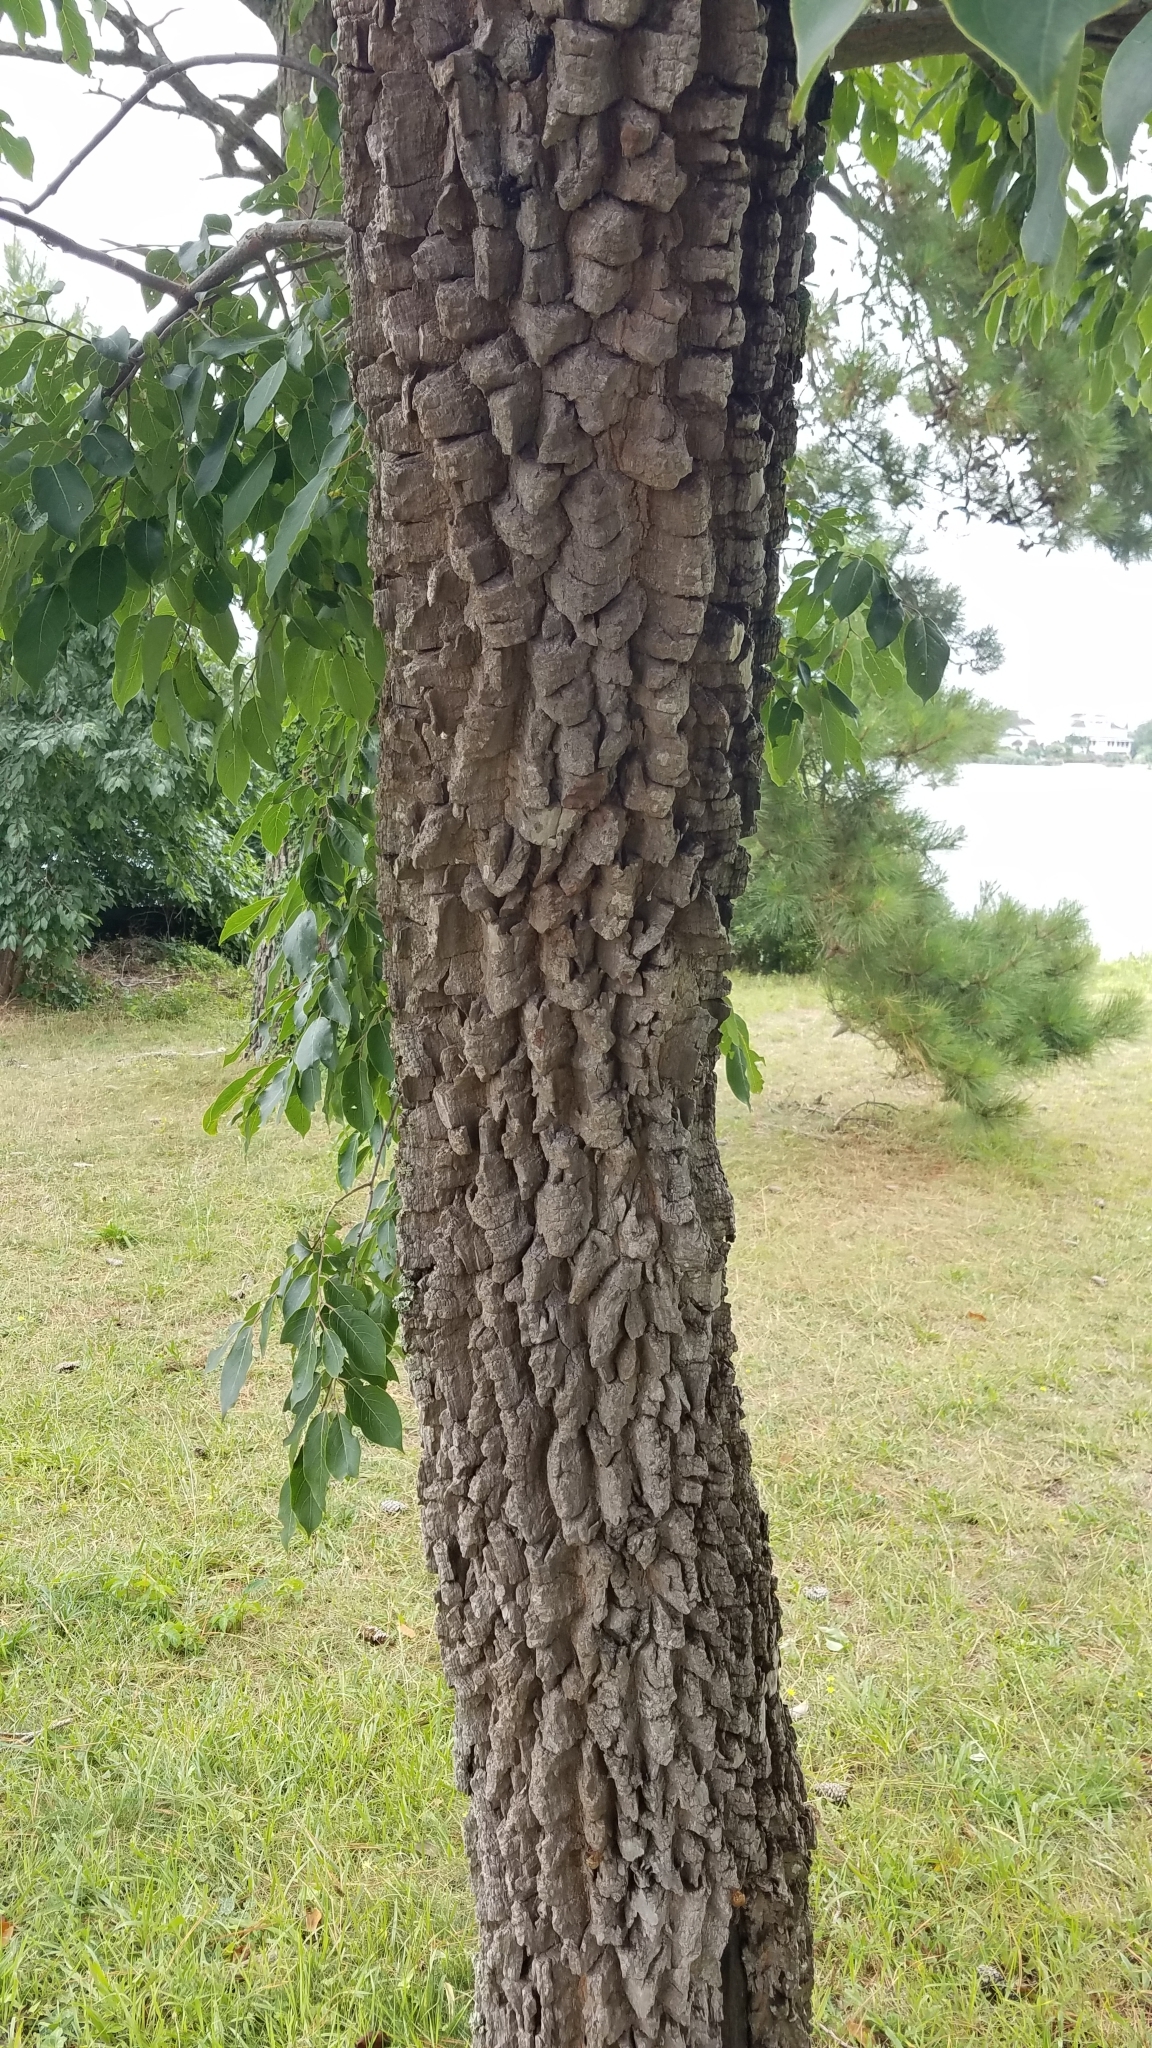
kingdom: Plantae
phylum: Tracheophyta
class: Magnoliopsida
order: Ericales
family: Ebenaceae
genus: Diospyros
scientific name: Diospyros virginiana
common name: Persimmon
